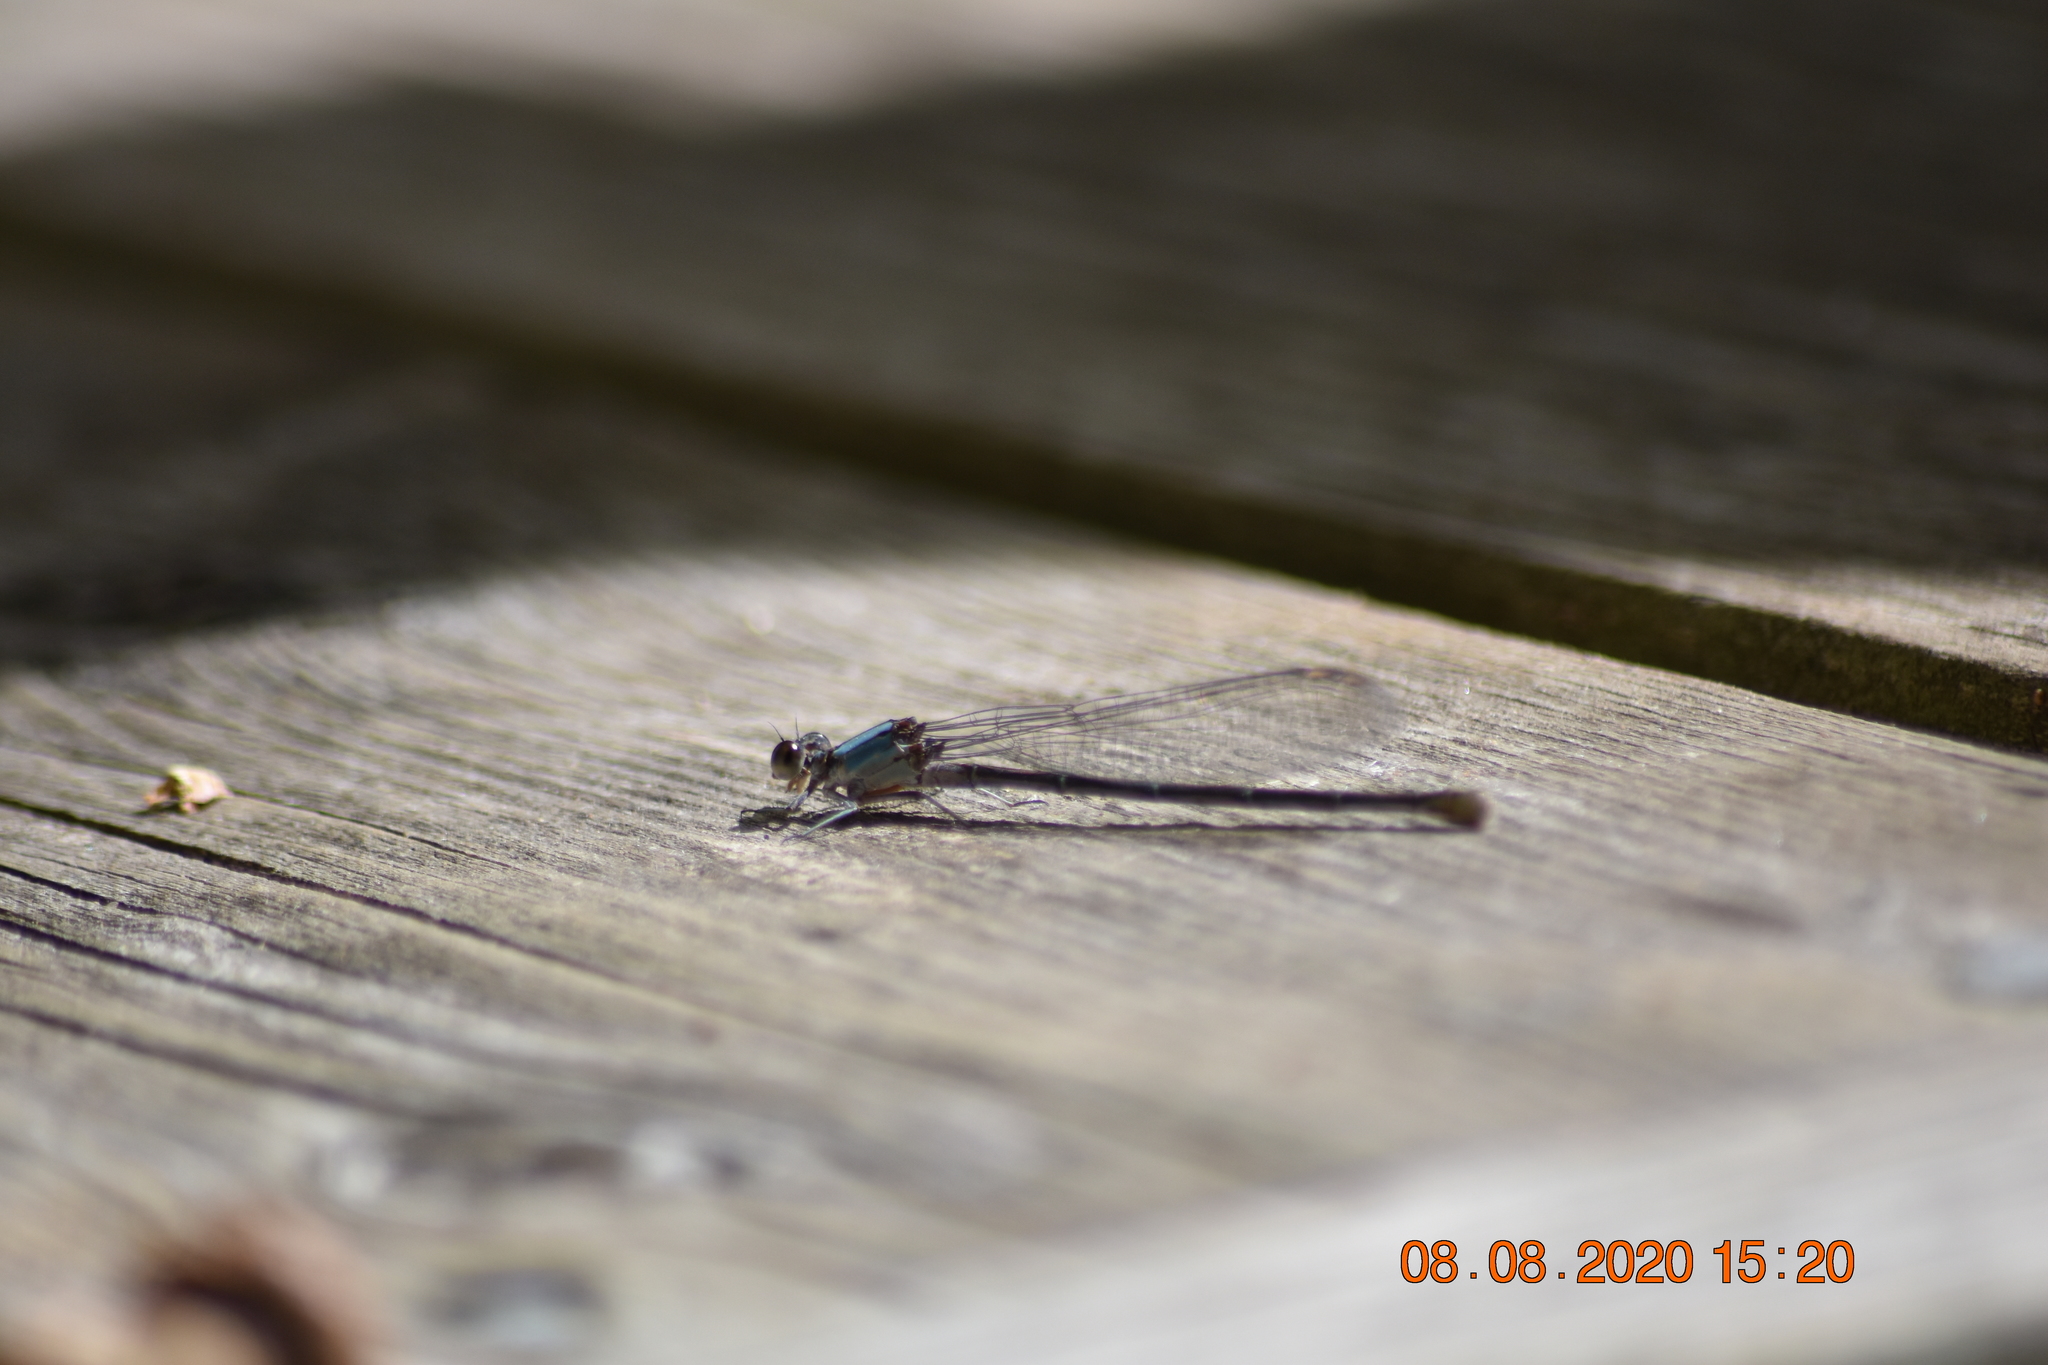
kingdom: Animalia
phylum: Arthropoda
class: Insecta
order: Odonata
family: Coenagrionidae
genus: Argia
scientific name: Argia moesta
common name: Powdered dancer
